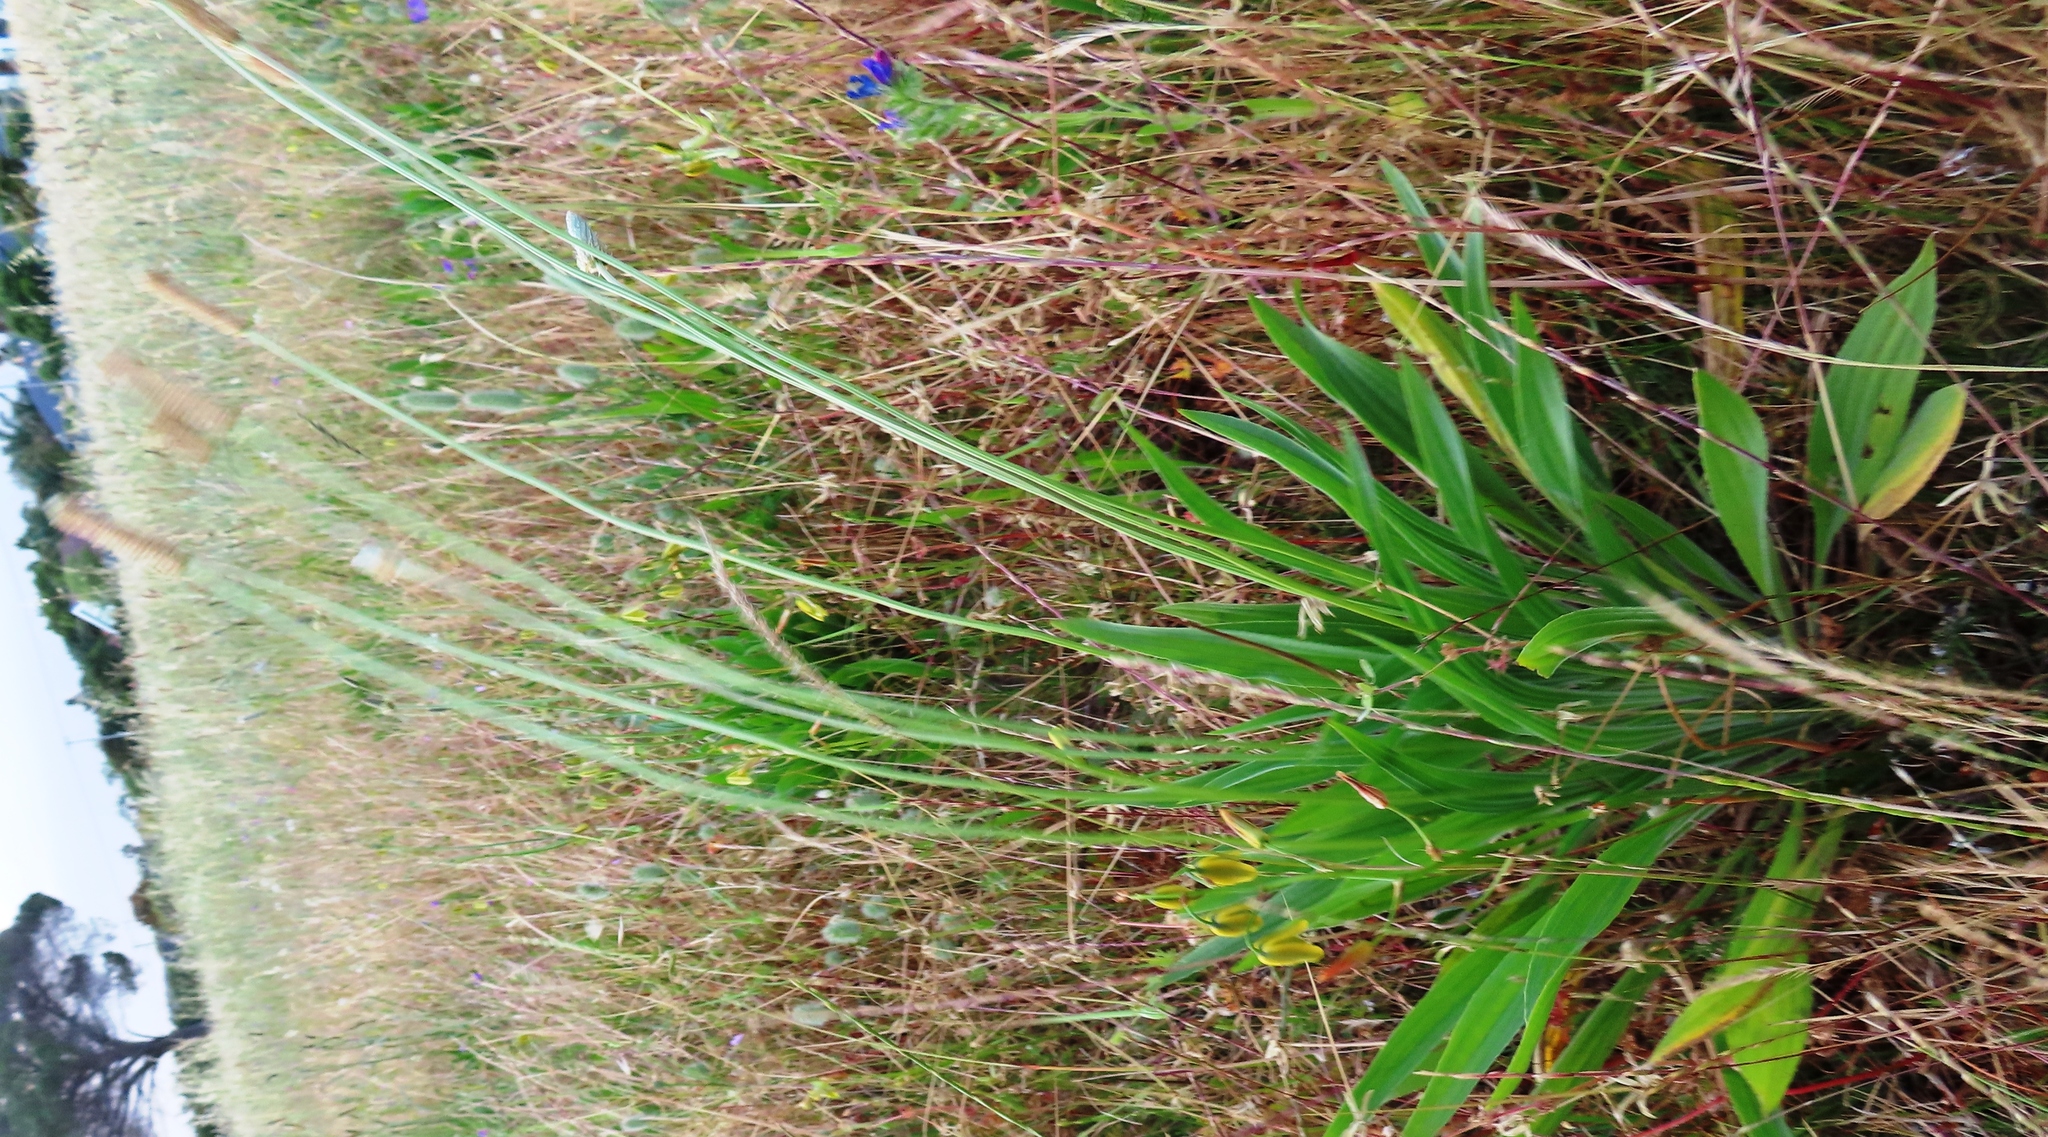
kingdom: Plantae
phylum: Tracheophyta
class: Magnoliopsida
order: Lamiales
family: Plantaginaceae
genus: Plantago
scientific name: Plantago lanceolata
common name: Ribwort plantain
